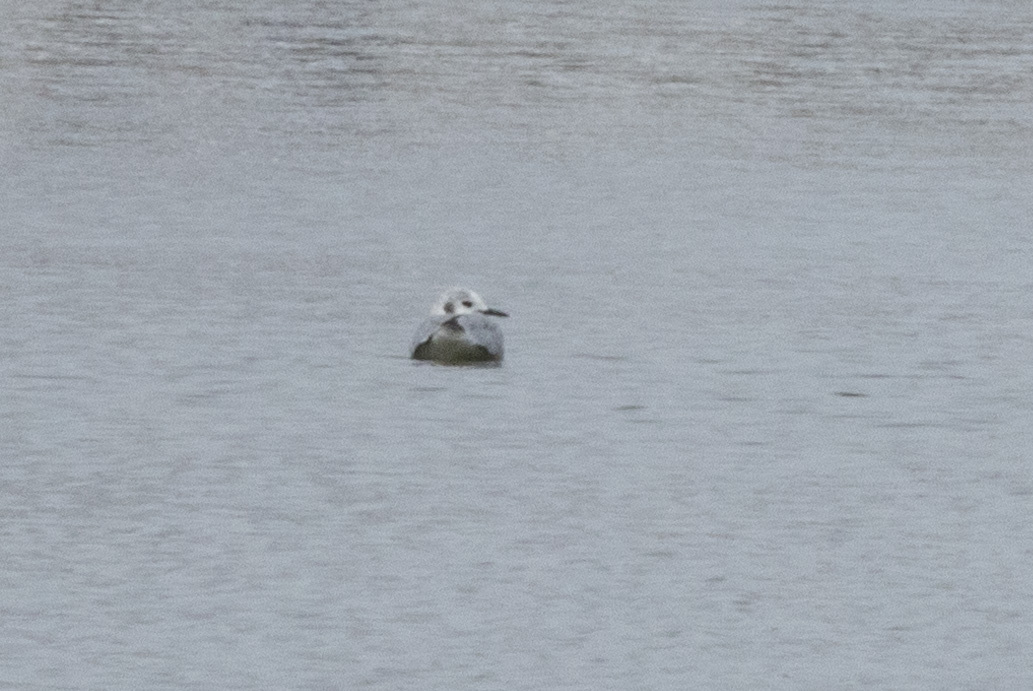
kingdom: Animalia
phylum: Chordata
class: Aves
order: Charadriiformes
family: Laridae
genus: Chroicocephalus
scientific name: Chroicocephalus philadelphia
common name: Bonaparte's gull
